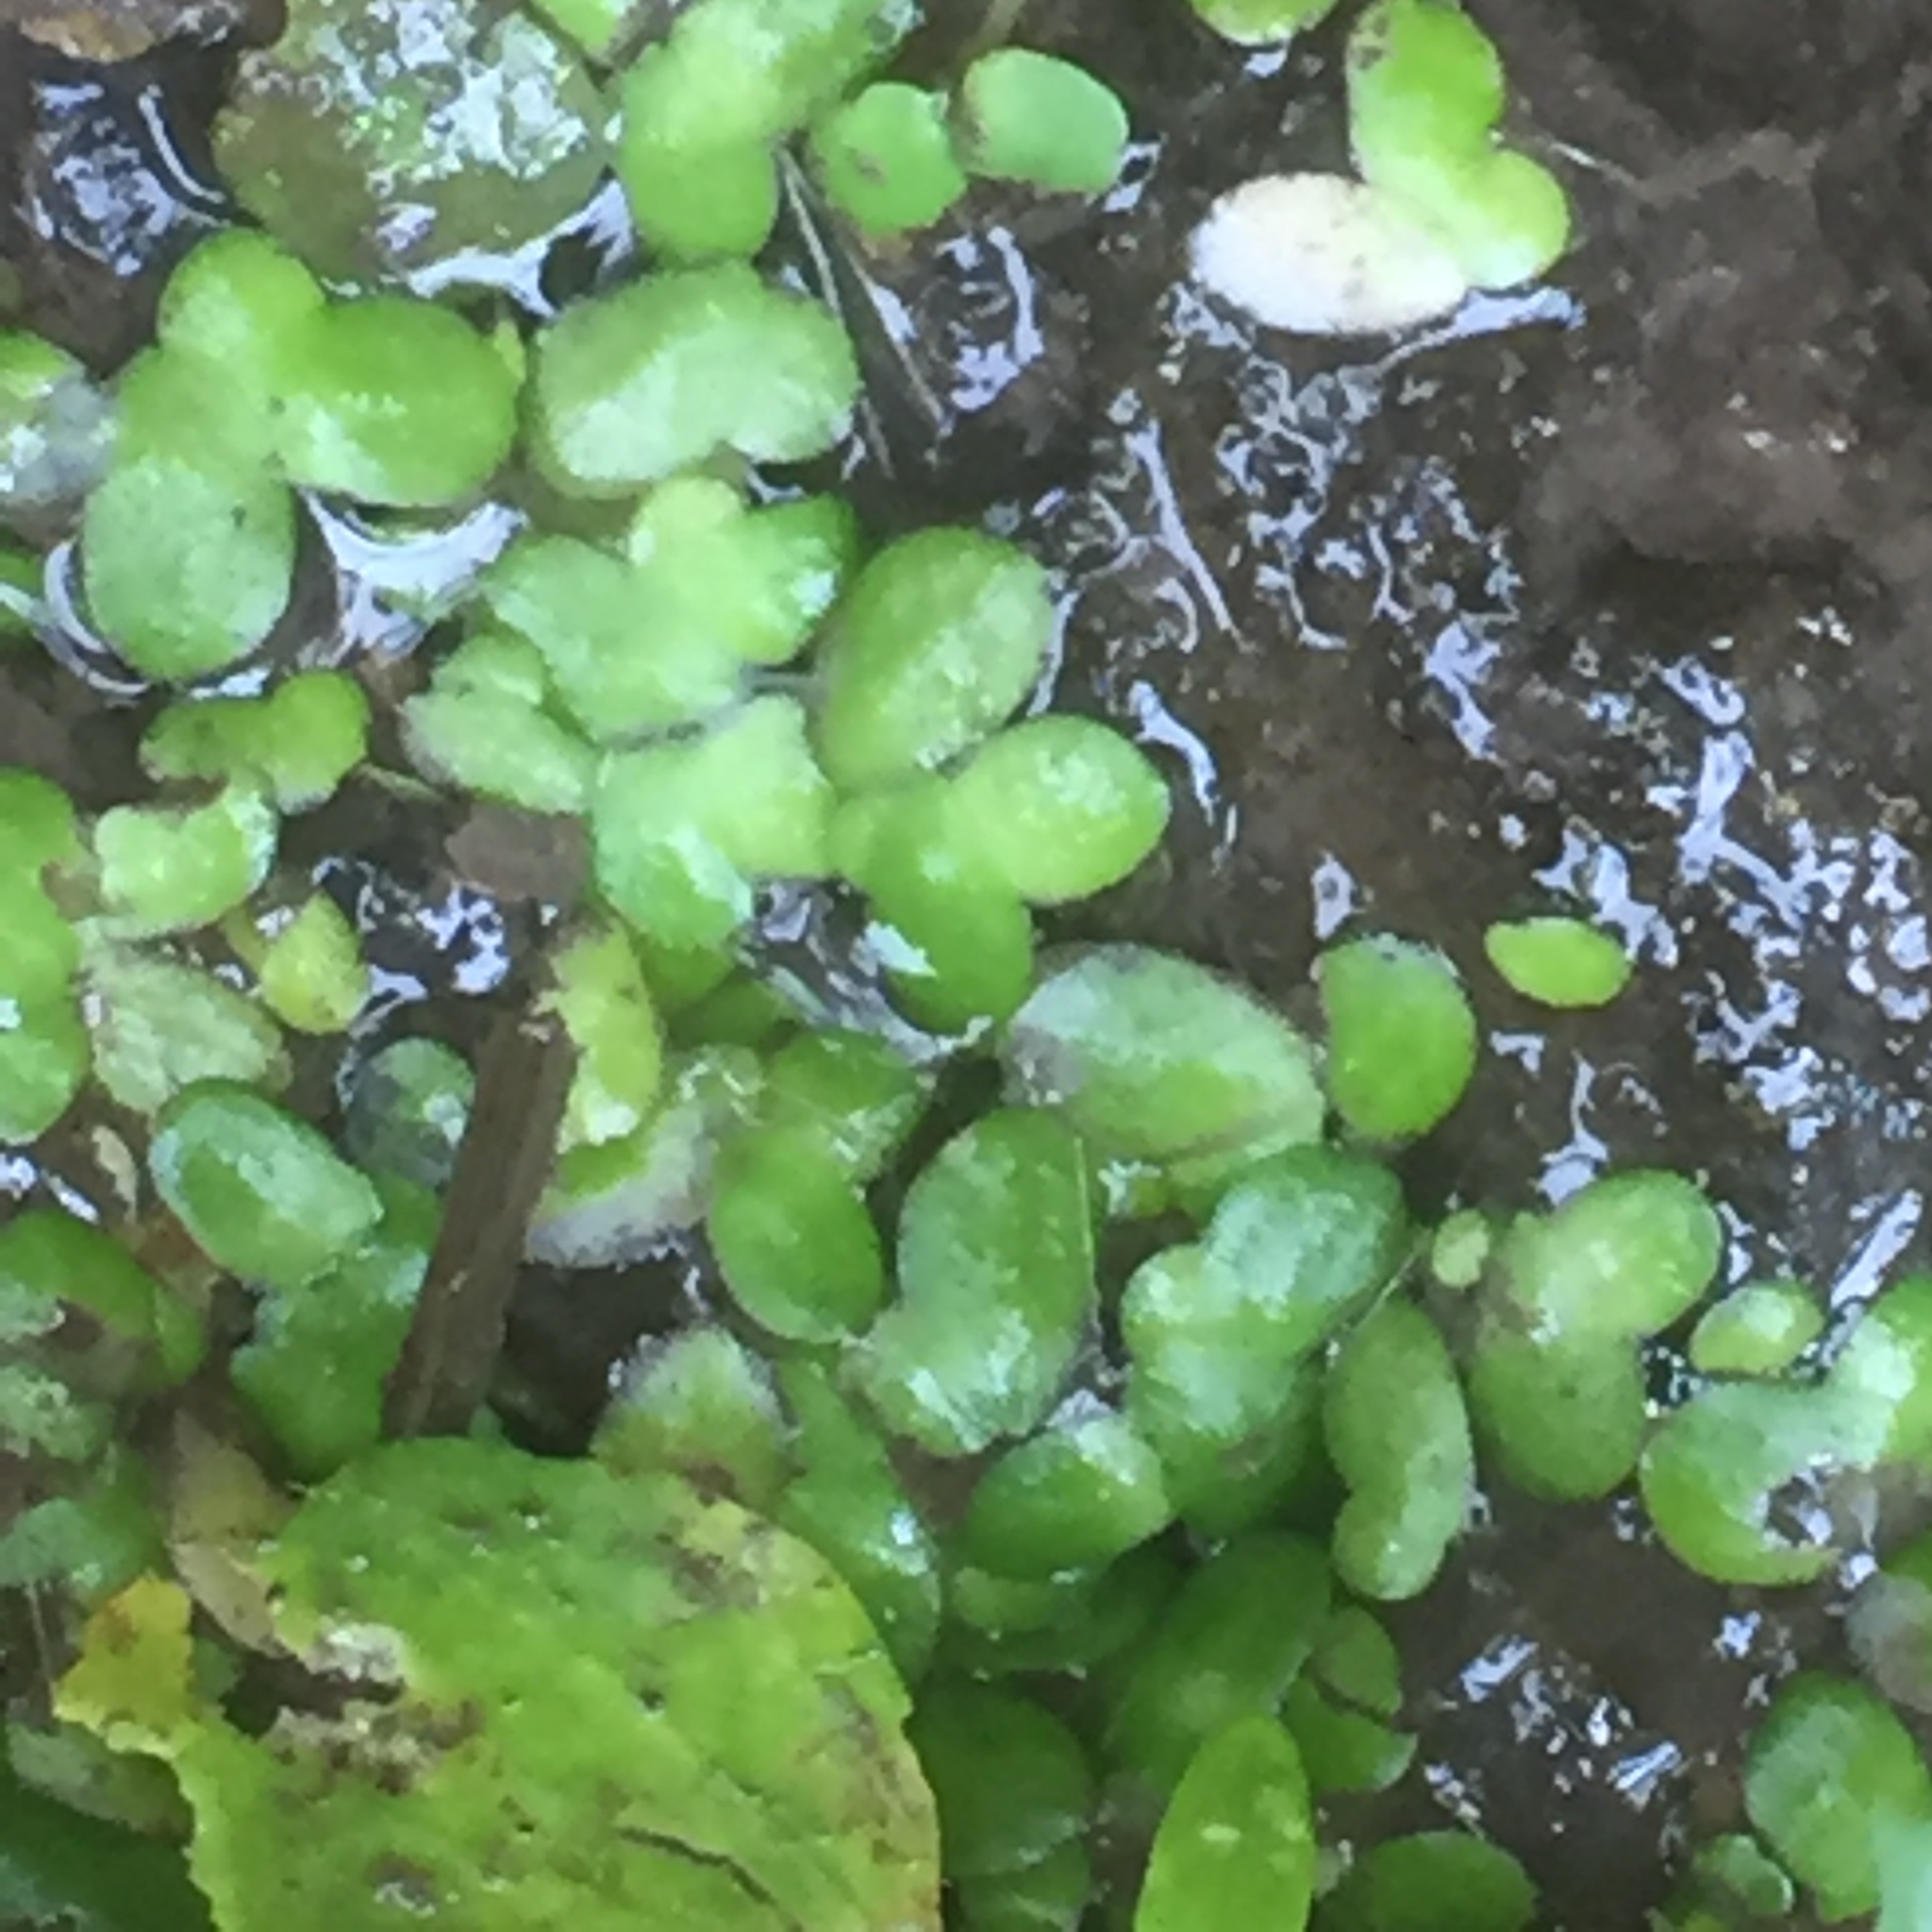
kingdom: Plantae
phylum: Tracheophyta
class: Liliopsida
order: Alismatales
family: Araceae
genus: Lemna
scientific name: Lemna minor
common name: Common duckweed
